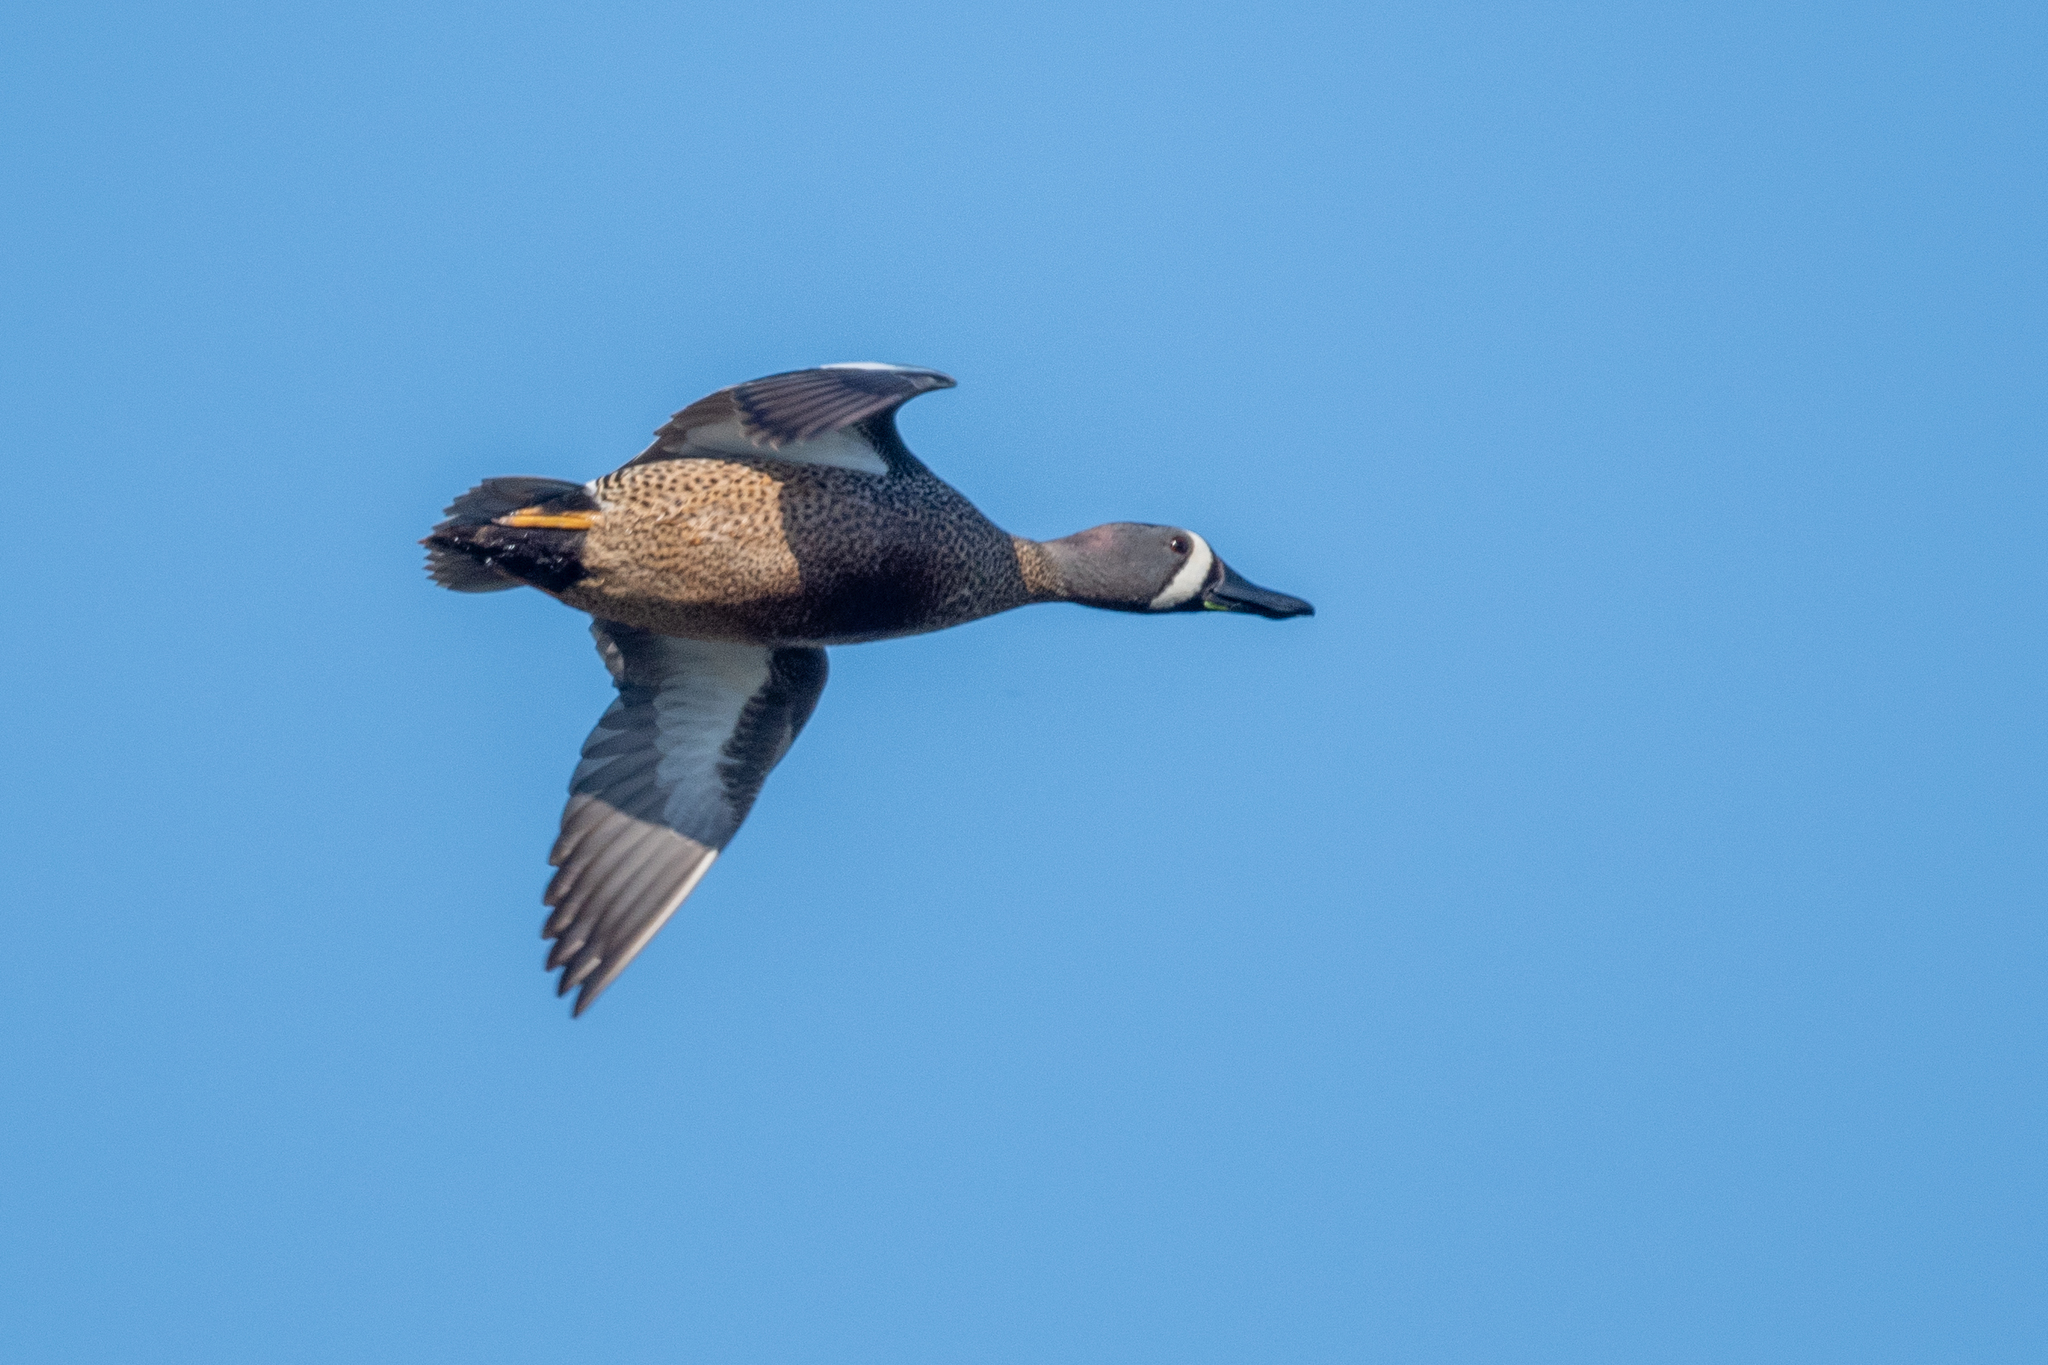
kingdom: Animalia
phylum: Chordata
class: Aves
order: Anseriformes
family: Anatidae
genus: Spatula
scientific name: Spatula discors
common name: Blue-winged teal
